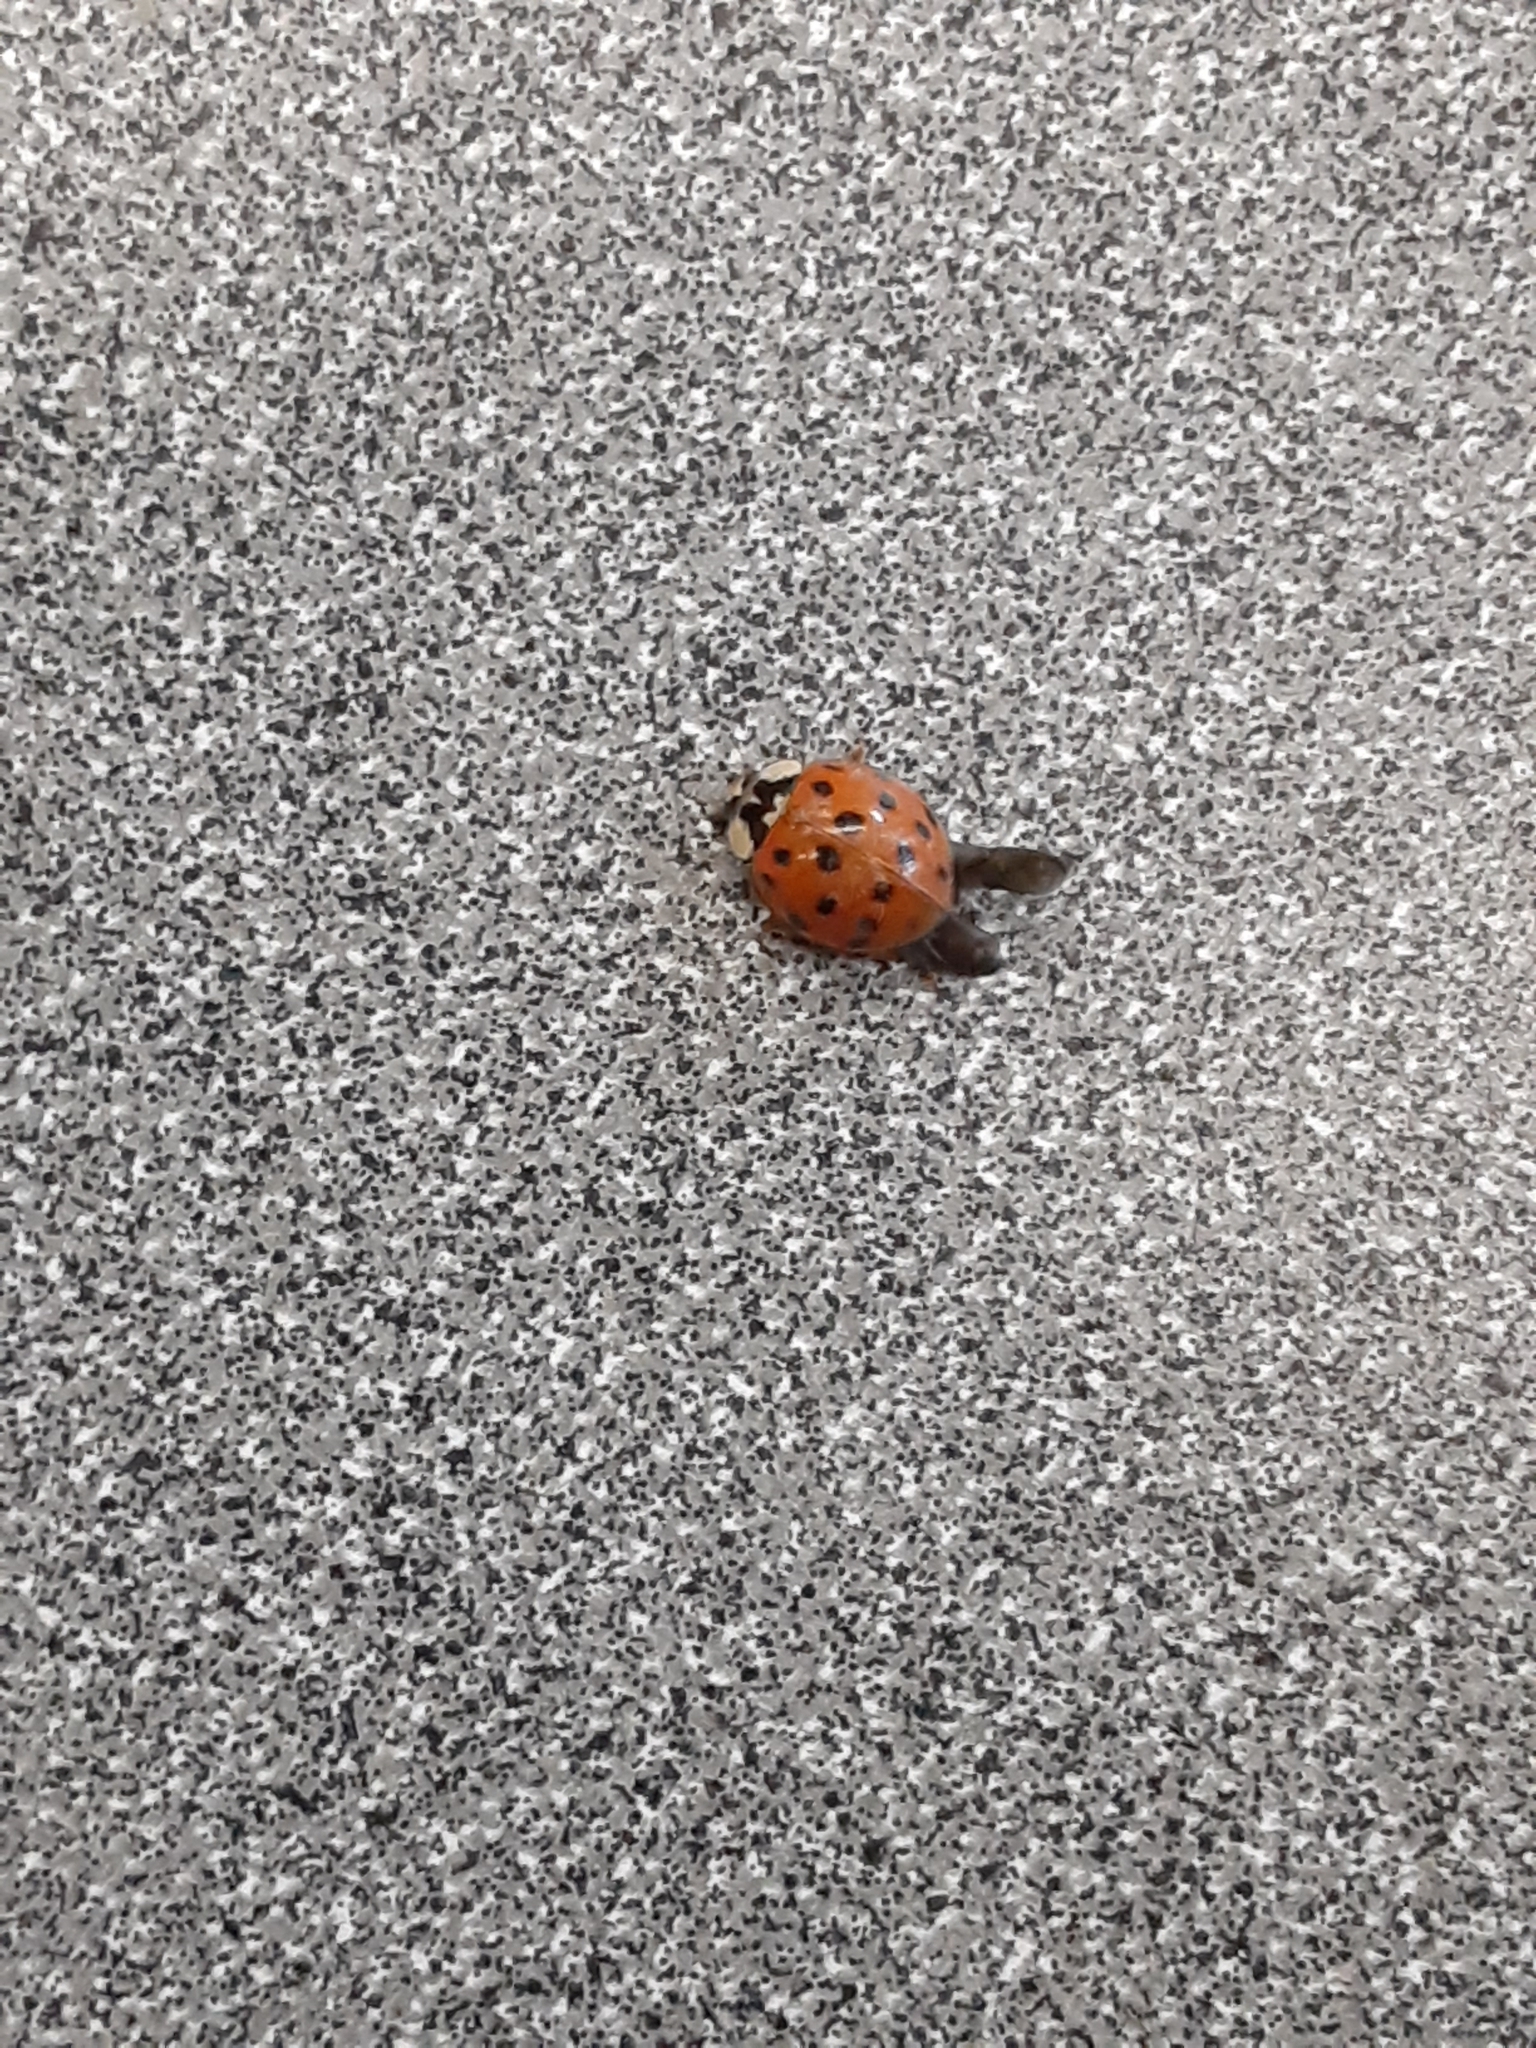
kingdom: Animalia
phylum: Arthropoda
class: Insecta
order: Coleoptera
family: Coccinellidae
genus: Harmonia
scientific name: Harmonia axyridis
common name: Harlequin ladybird
